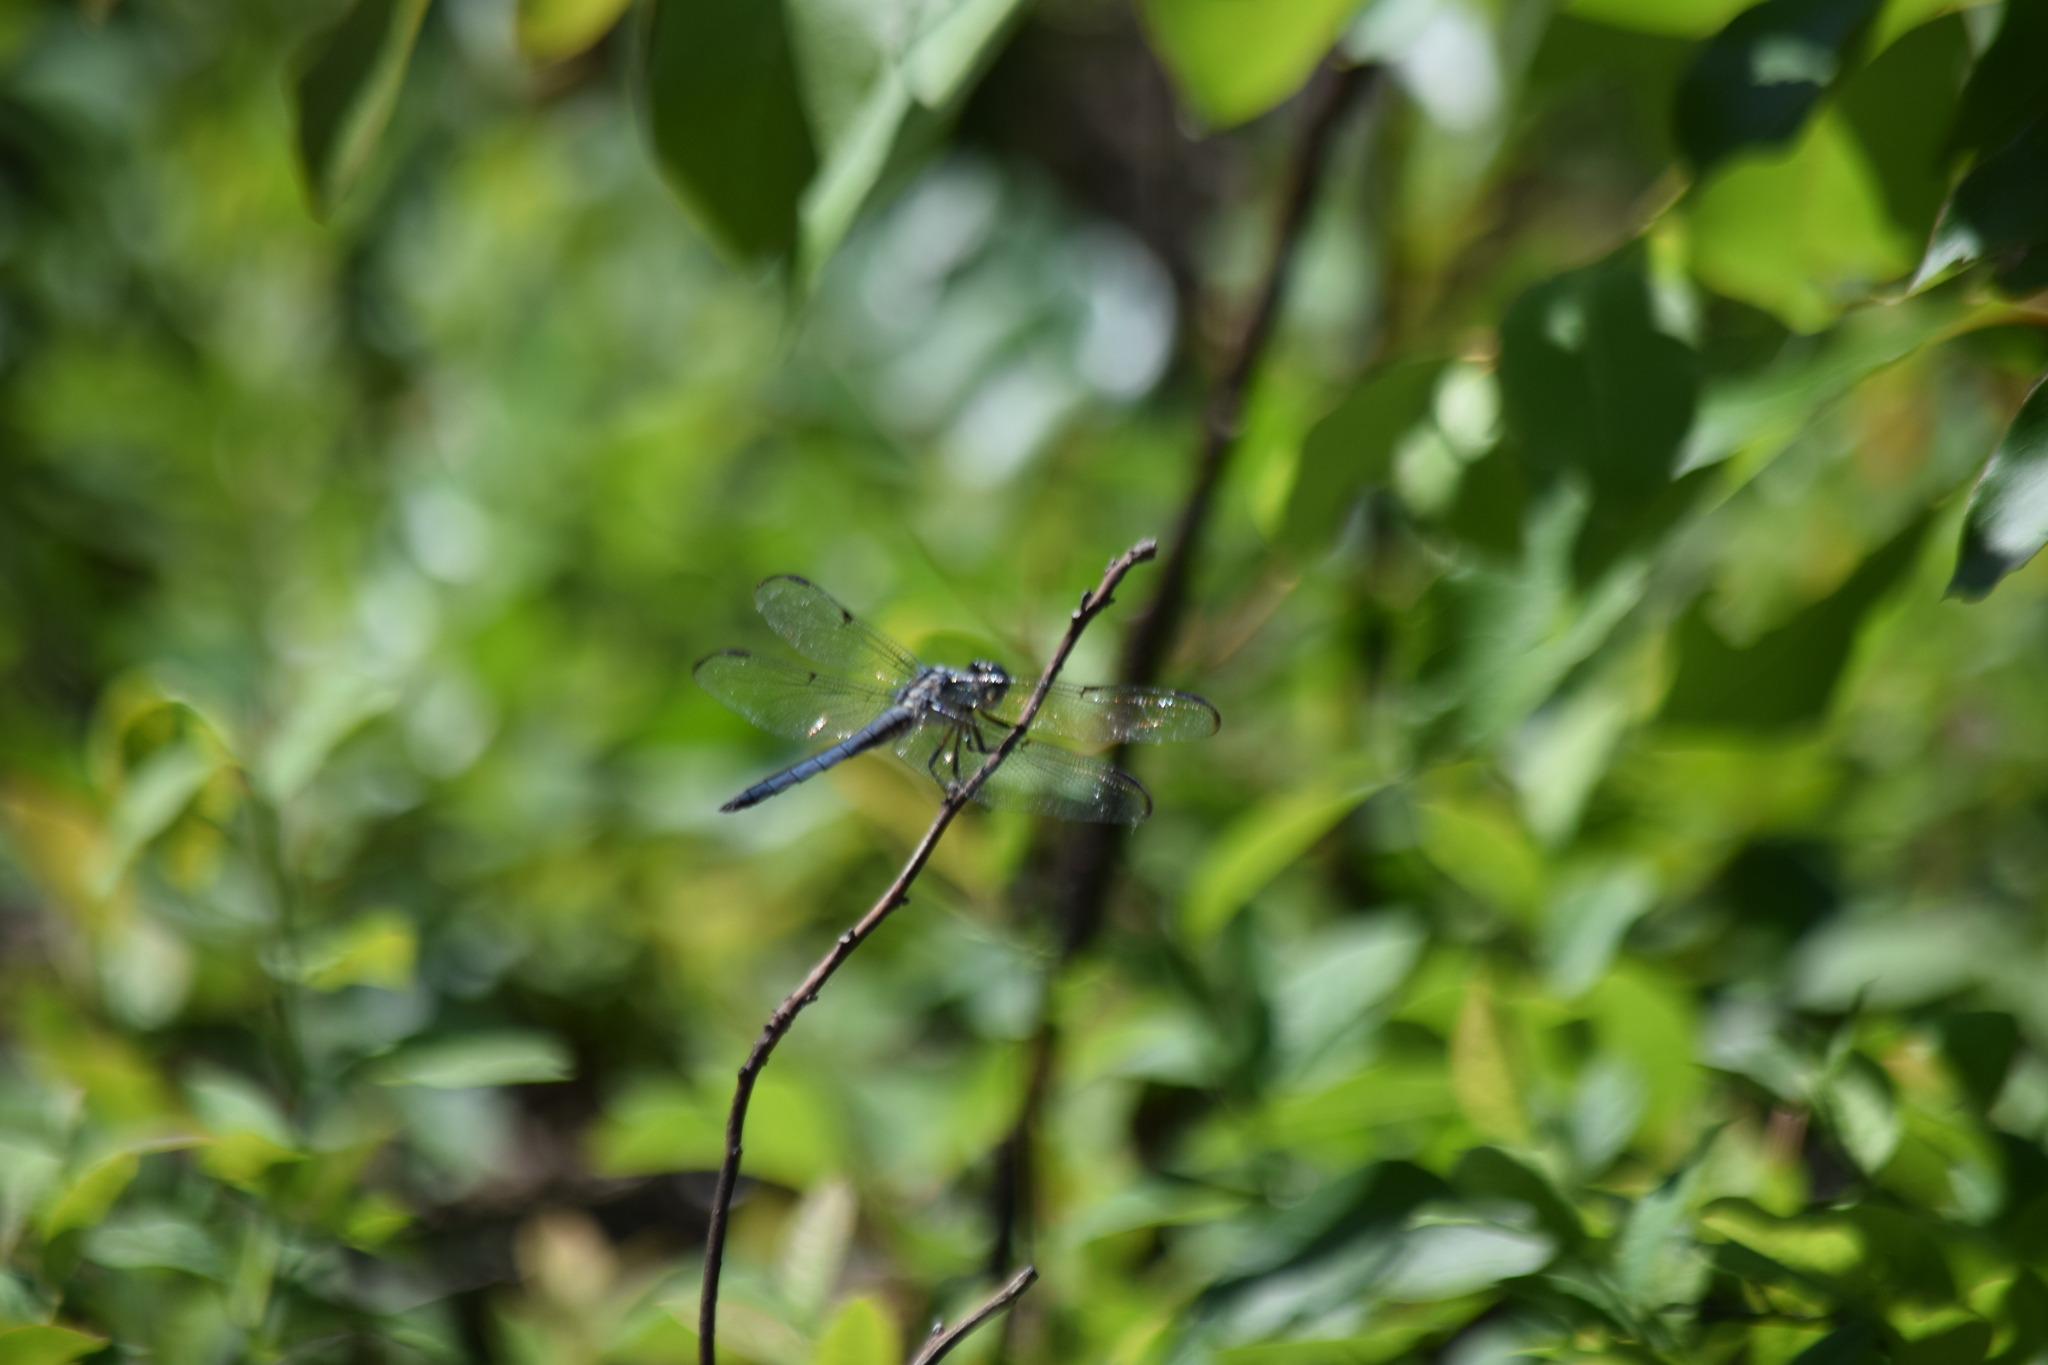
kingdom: Animalia
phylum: Arthropoda
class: Insecta
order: Odonata
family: Libellulidae
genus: Libellula
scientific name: Libellula vibrans
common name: Great blue skimmer
